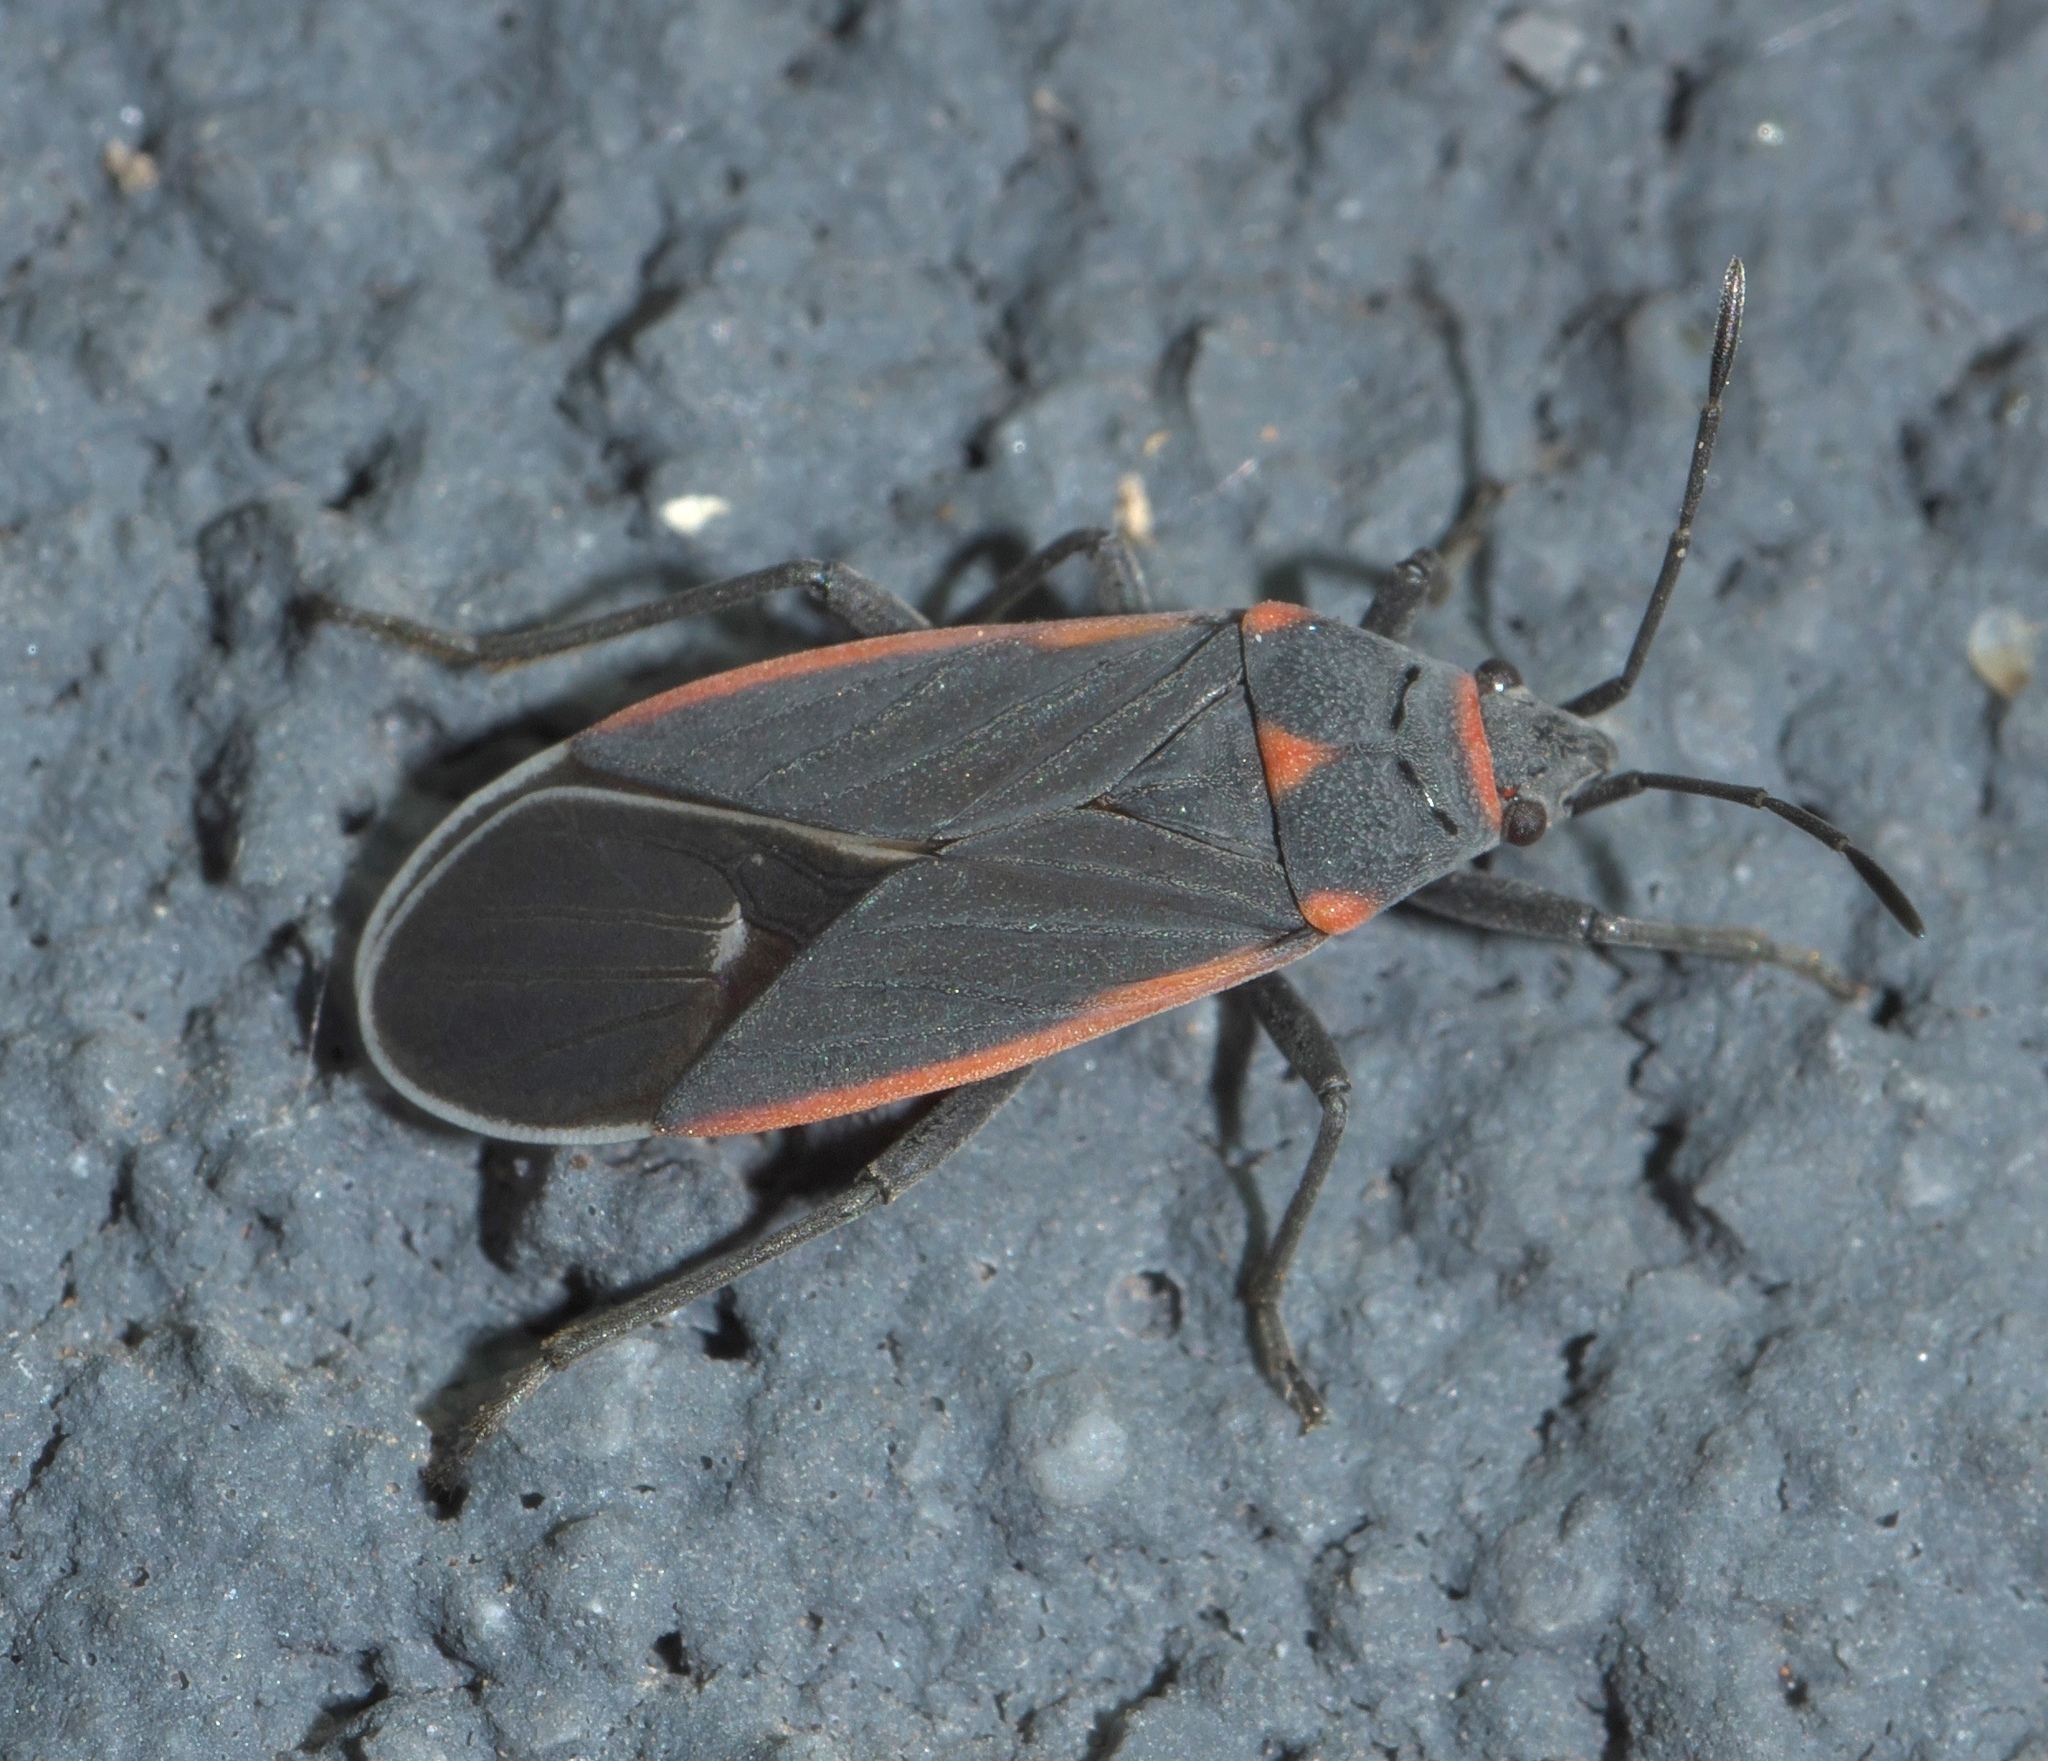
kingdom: Animalia
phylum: Arthropoda
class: Insecta
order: Hemiptera
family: Lygaeidae
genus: Melacoryphus
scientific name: Melacoryphus lateralis
